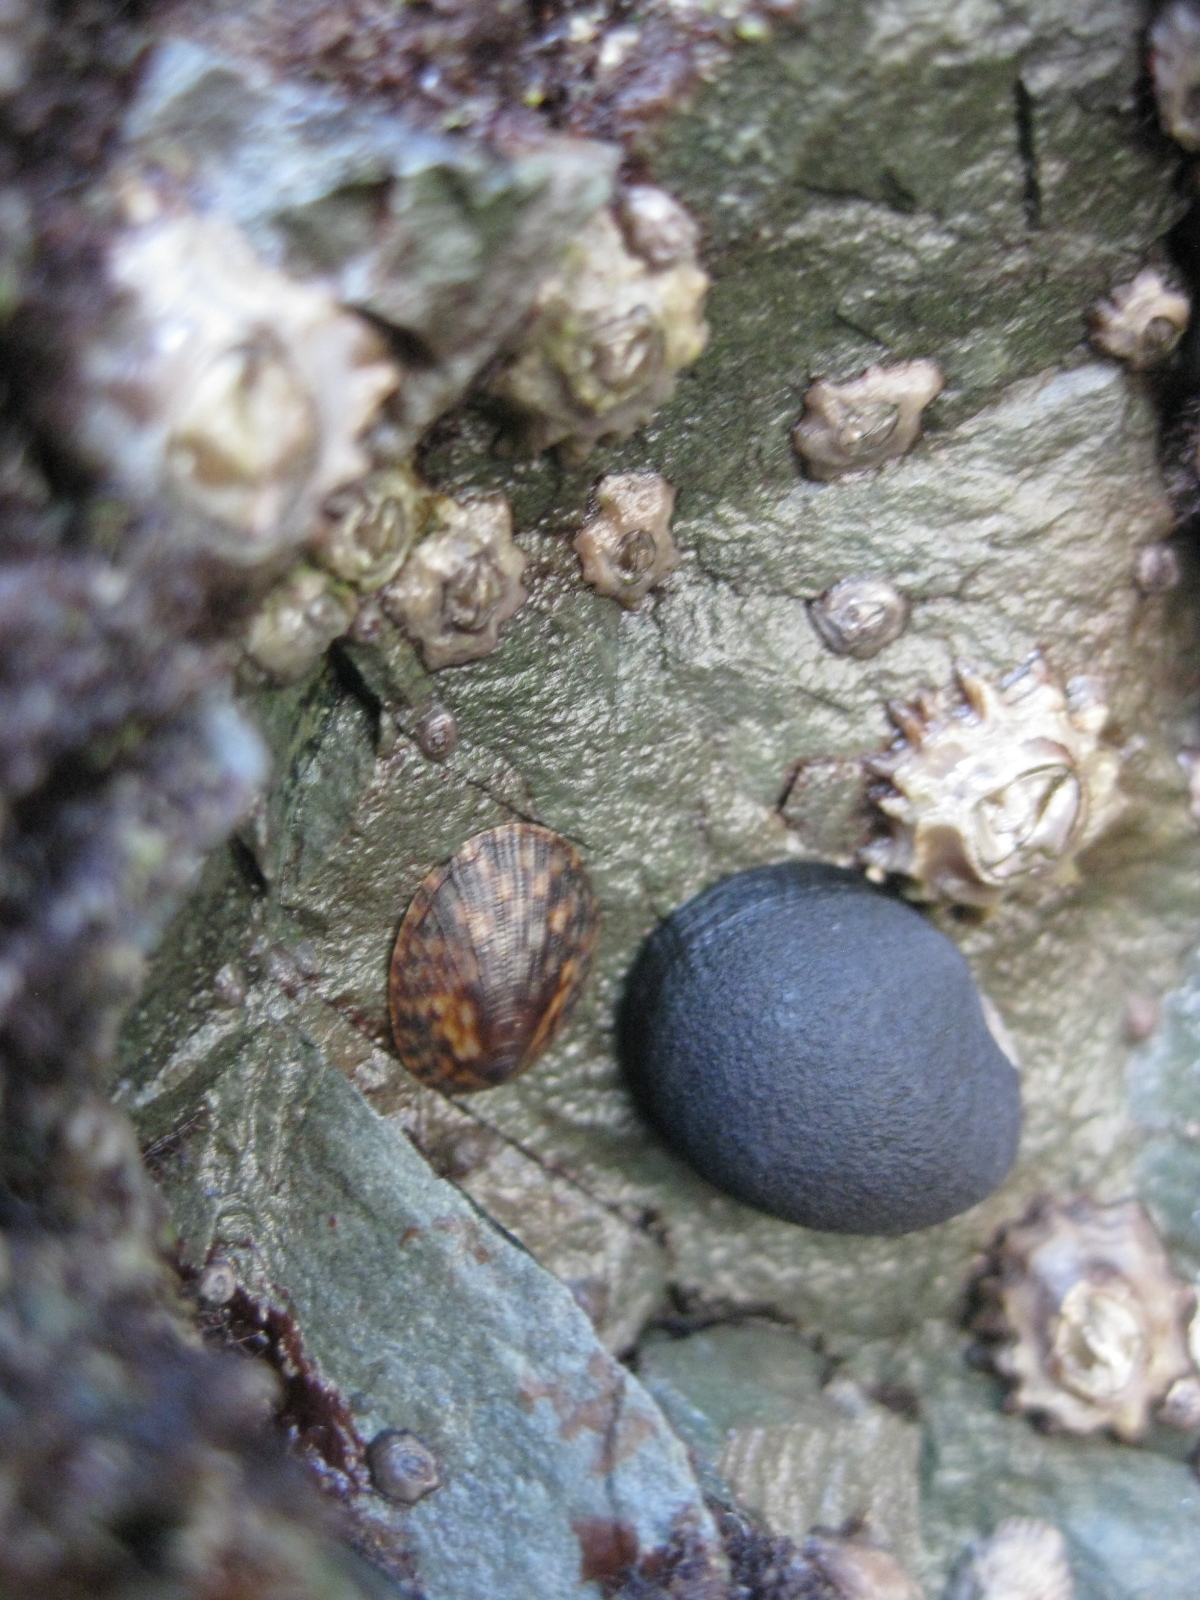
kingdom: Animalia
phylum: Mollusca
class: Gastropoda
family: Lottiidae
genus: Notoacmea
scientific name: Notoacmea pileopsis
